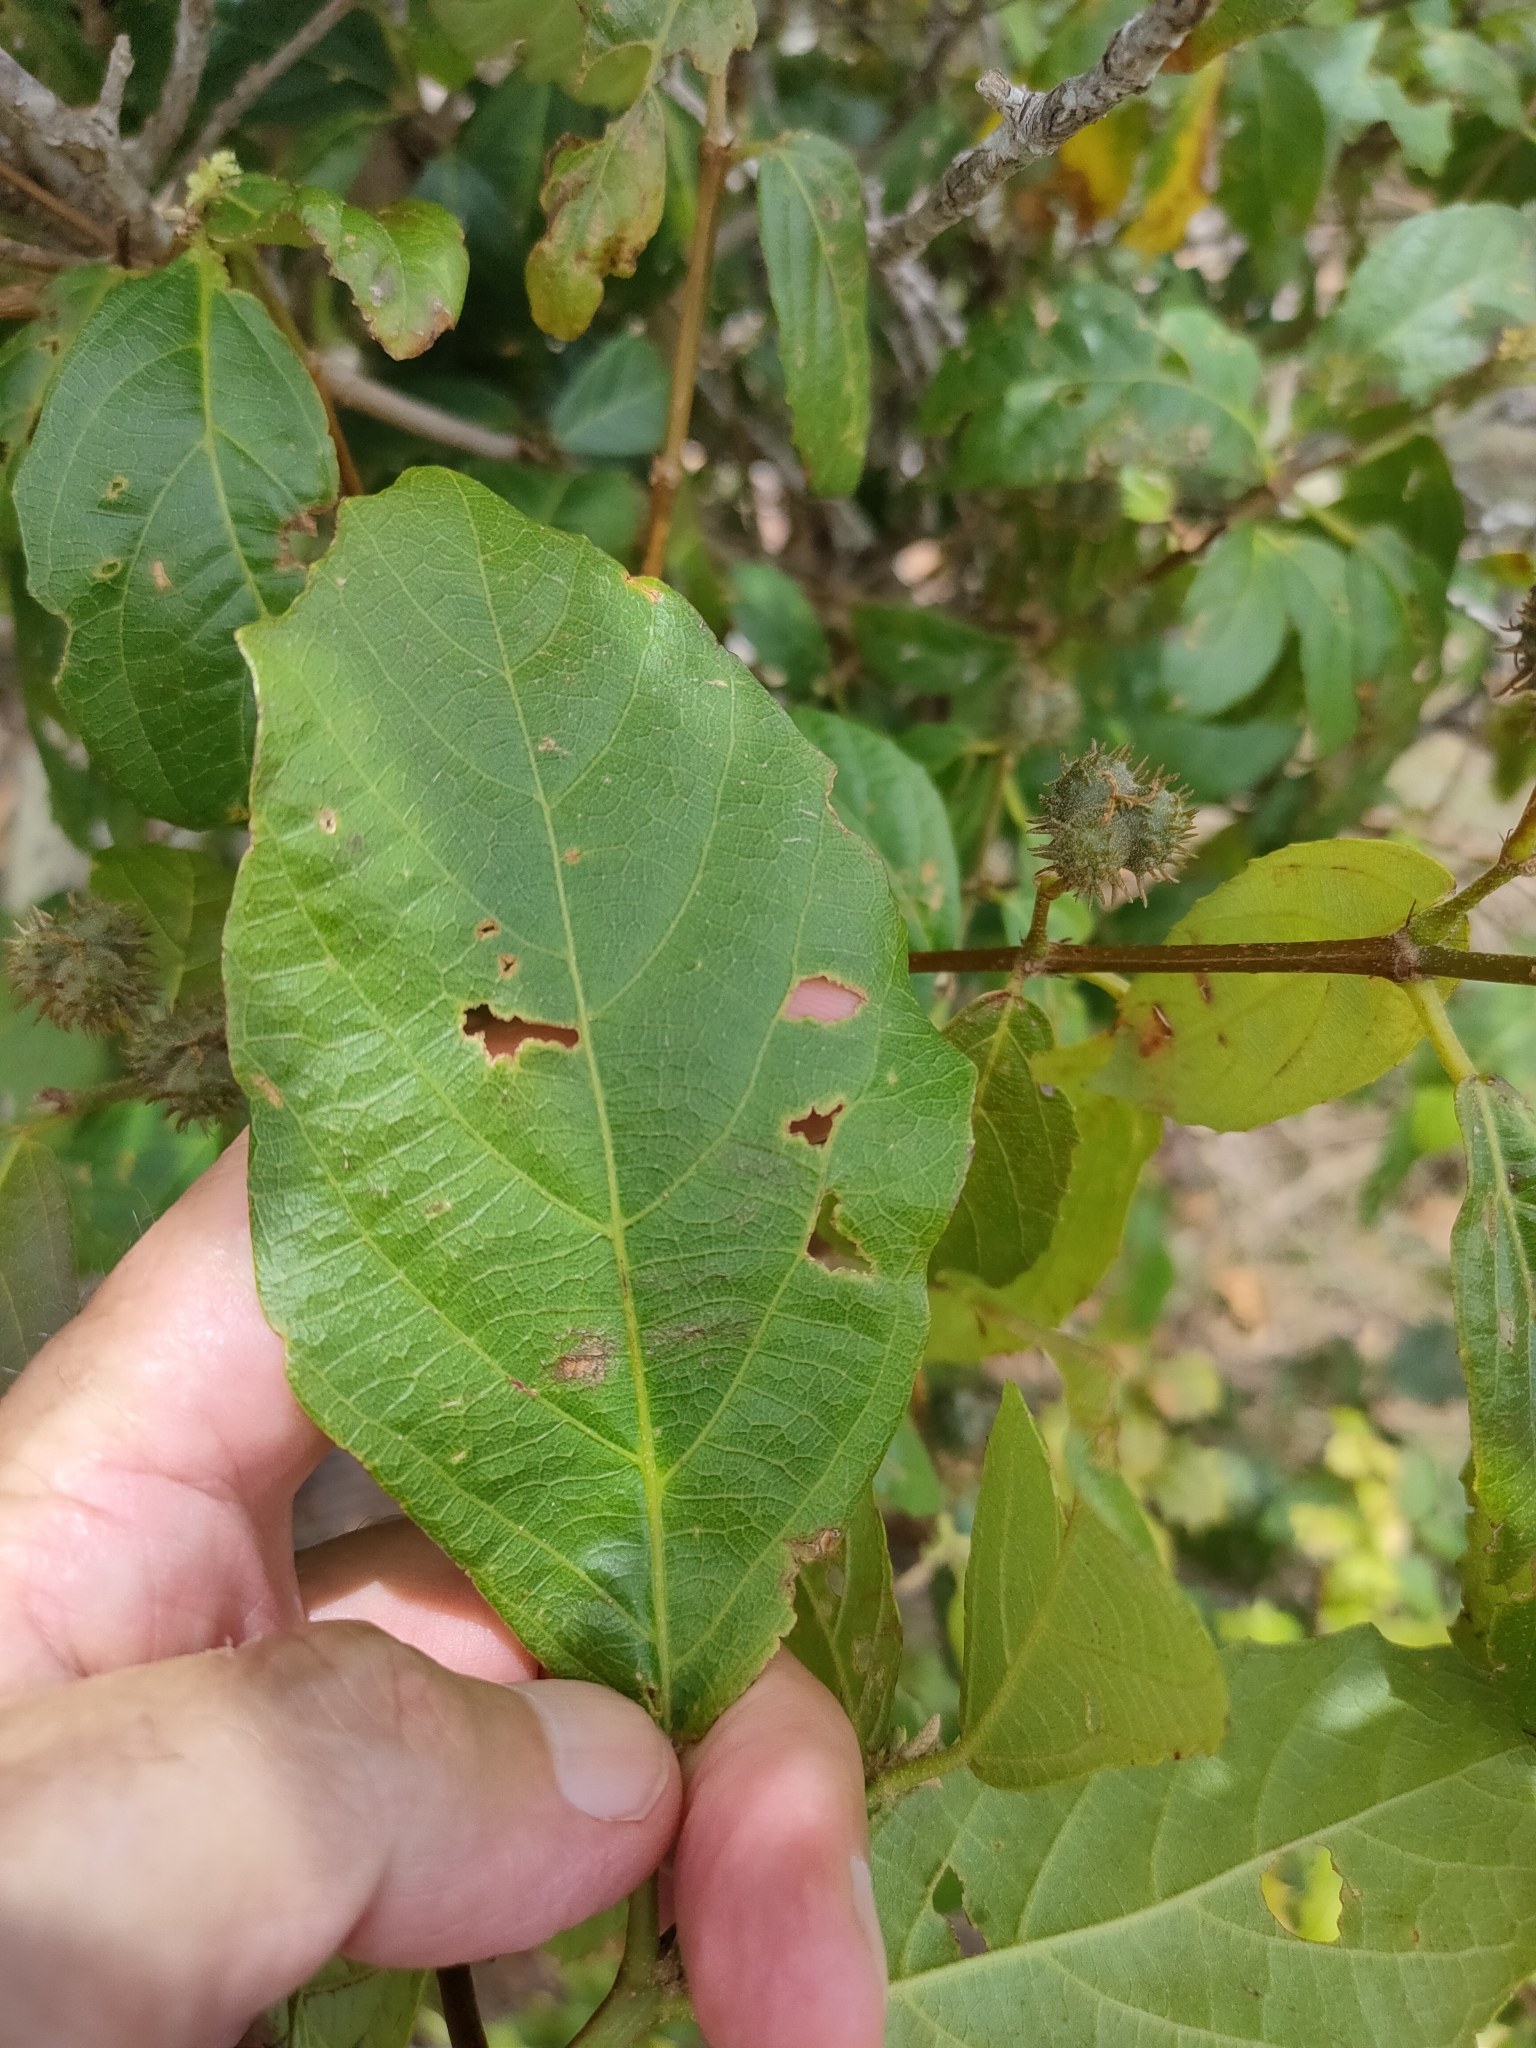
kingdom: Plantae
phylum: Tracheophyta
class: Magnoliopsida
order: Malpighiales
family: Euphorbiaceae
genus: Mallotus
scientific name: Mallotus claoxyloides
